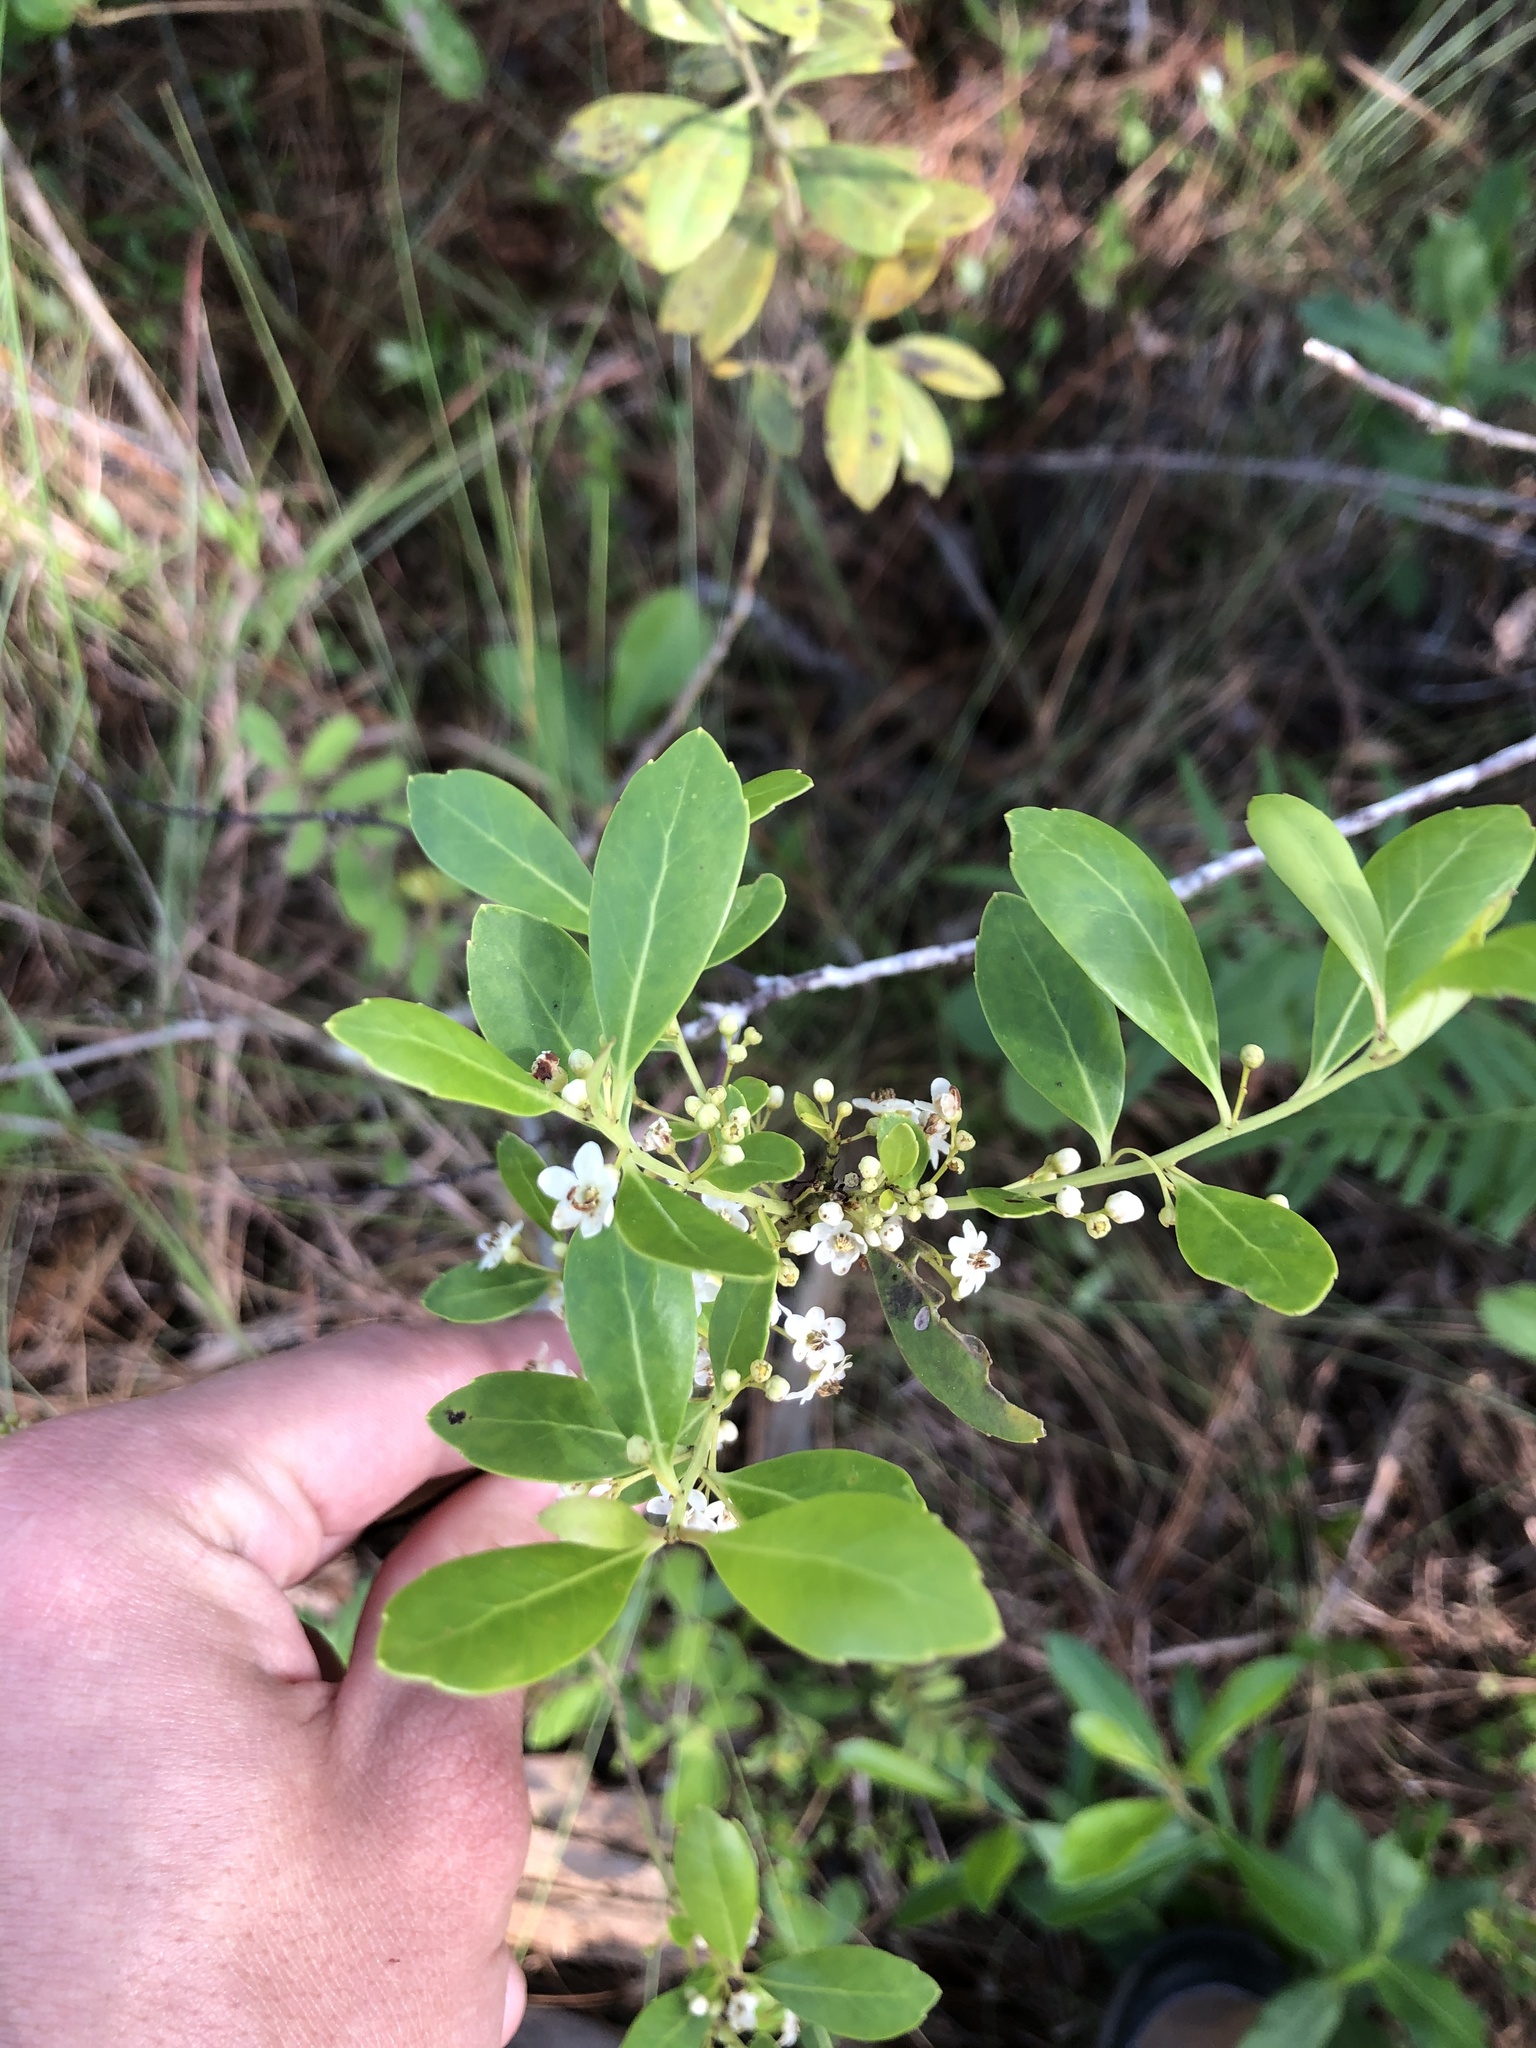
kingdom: Plantae
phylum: Tracheophyta
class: Magnoliopsida
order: Aquifoliales
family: Aquifoliaceae
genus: Ilex
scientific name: Ilex glabra
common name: Bitter gallberry
